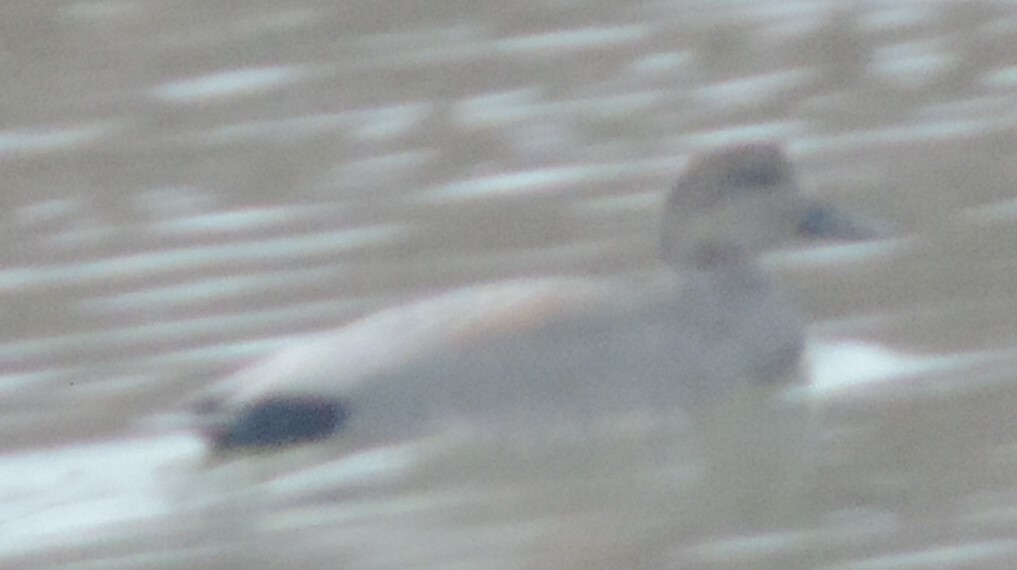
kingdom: Animalia
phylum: Chordata
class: Aves
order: Anseriformes
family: Anatidae
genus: Mareca
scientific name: Mareca strepera
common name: Gadwall
